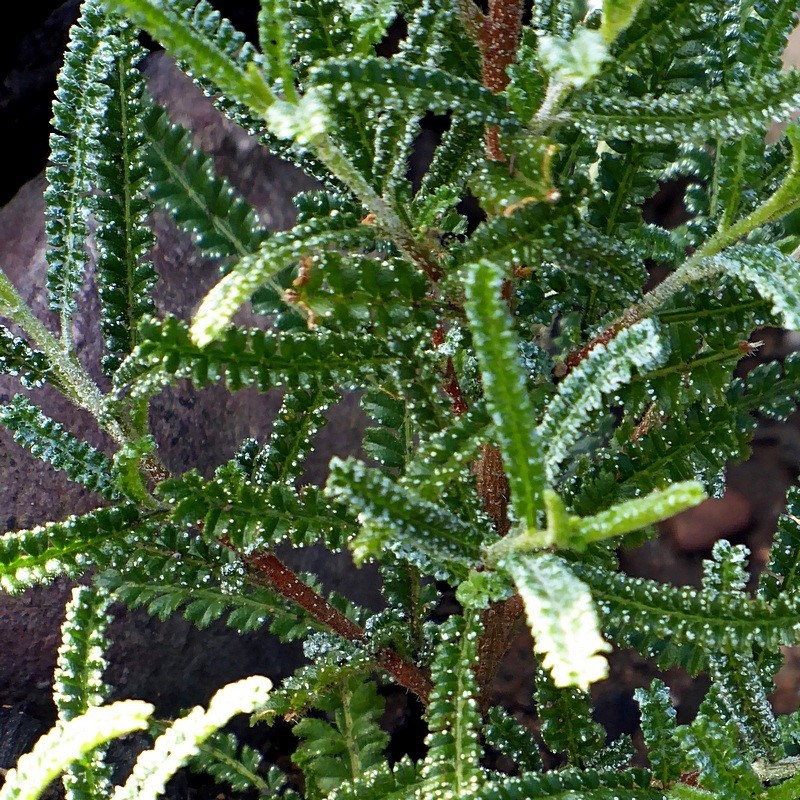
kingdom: Plantae
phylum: Tracheophyta
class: Magnoliopsida
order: Sapindales
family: Sapindaceae
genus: Dodonaea
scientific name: Dodonaea multijuga
